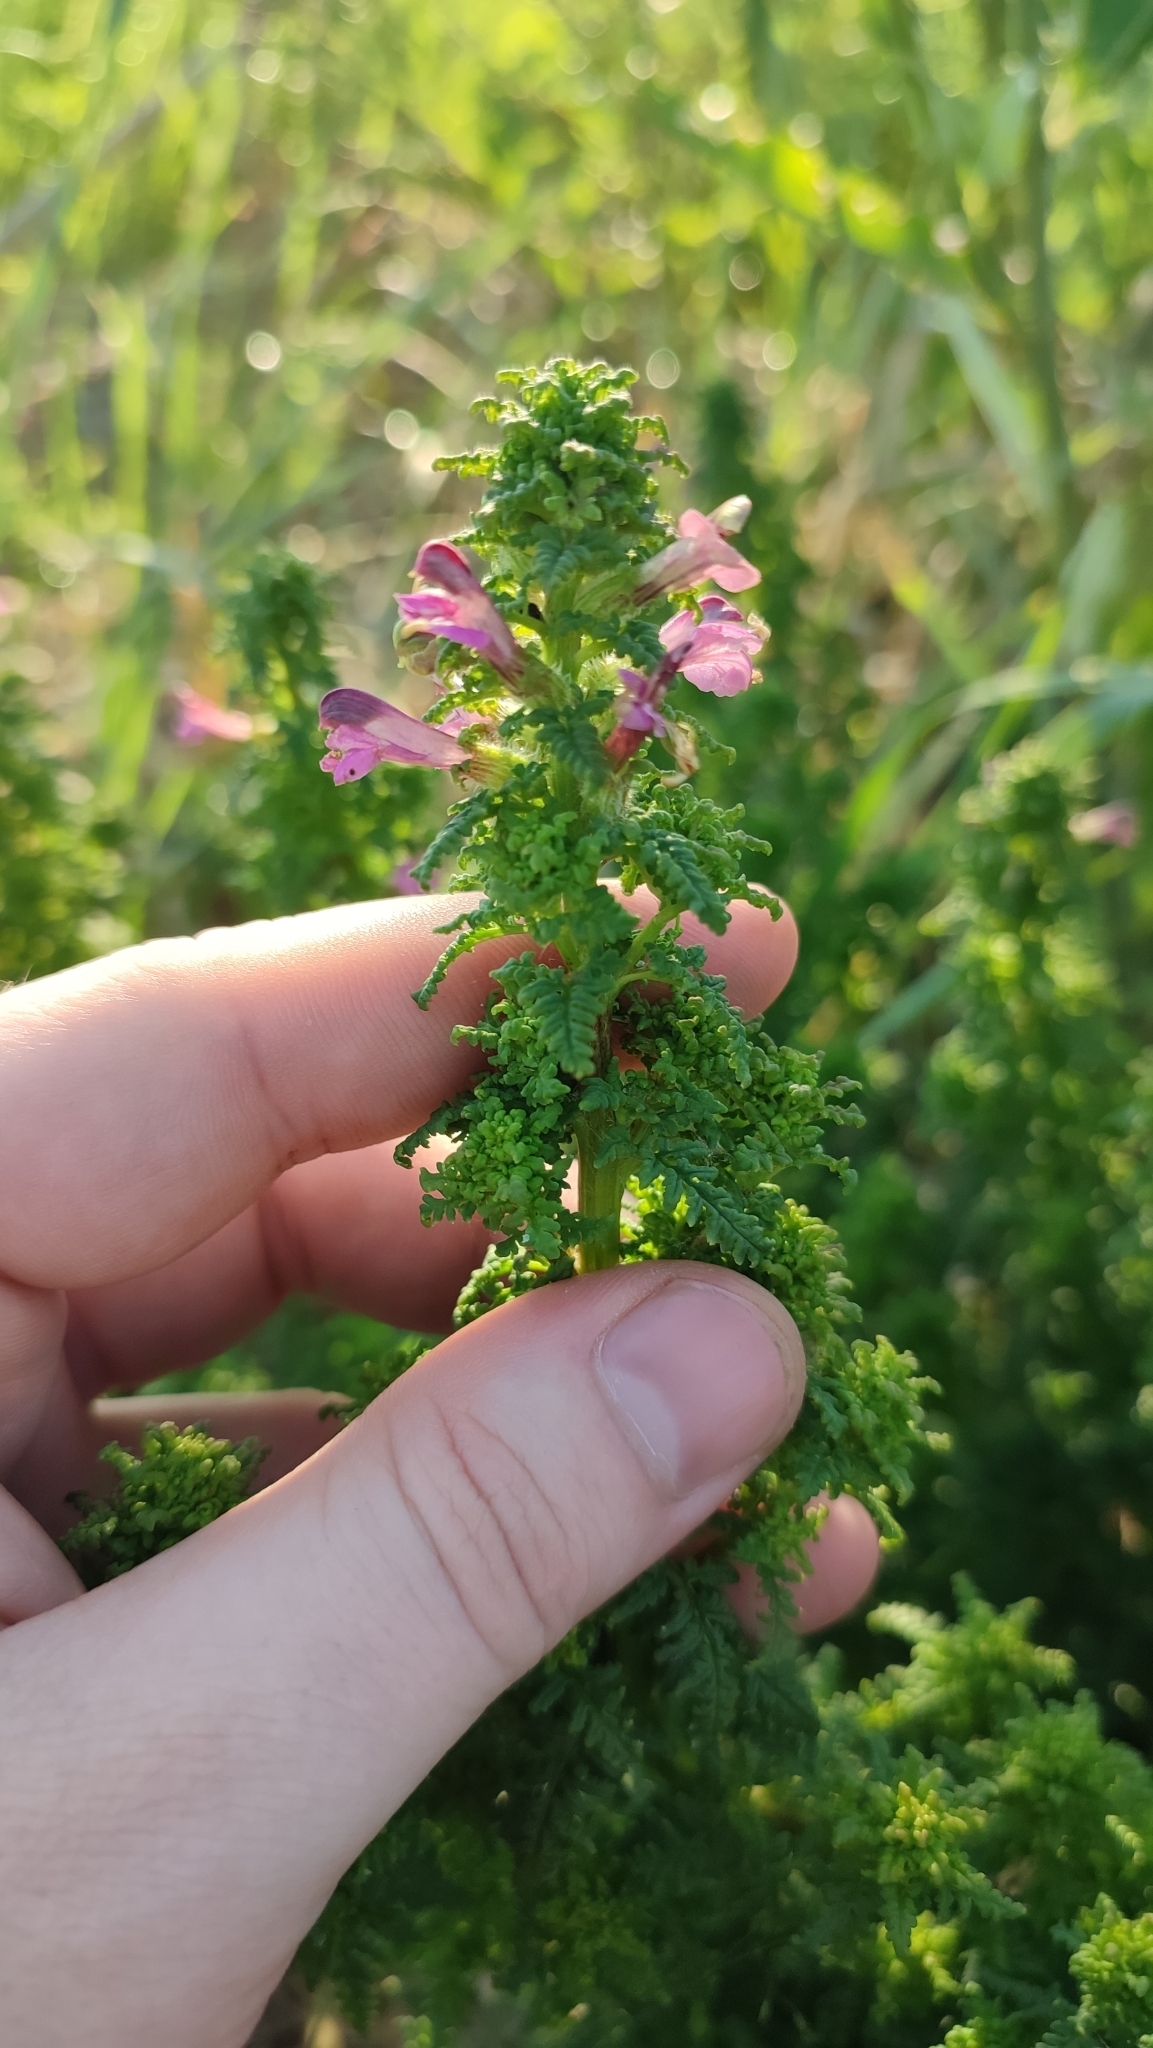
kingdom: Plantae
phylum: Tracheophyta
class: Magnoliopsida
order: Lamiales
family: Orobanchaceae
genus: Pedicularis
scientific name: Pedicularis karoi
